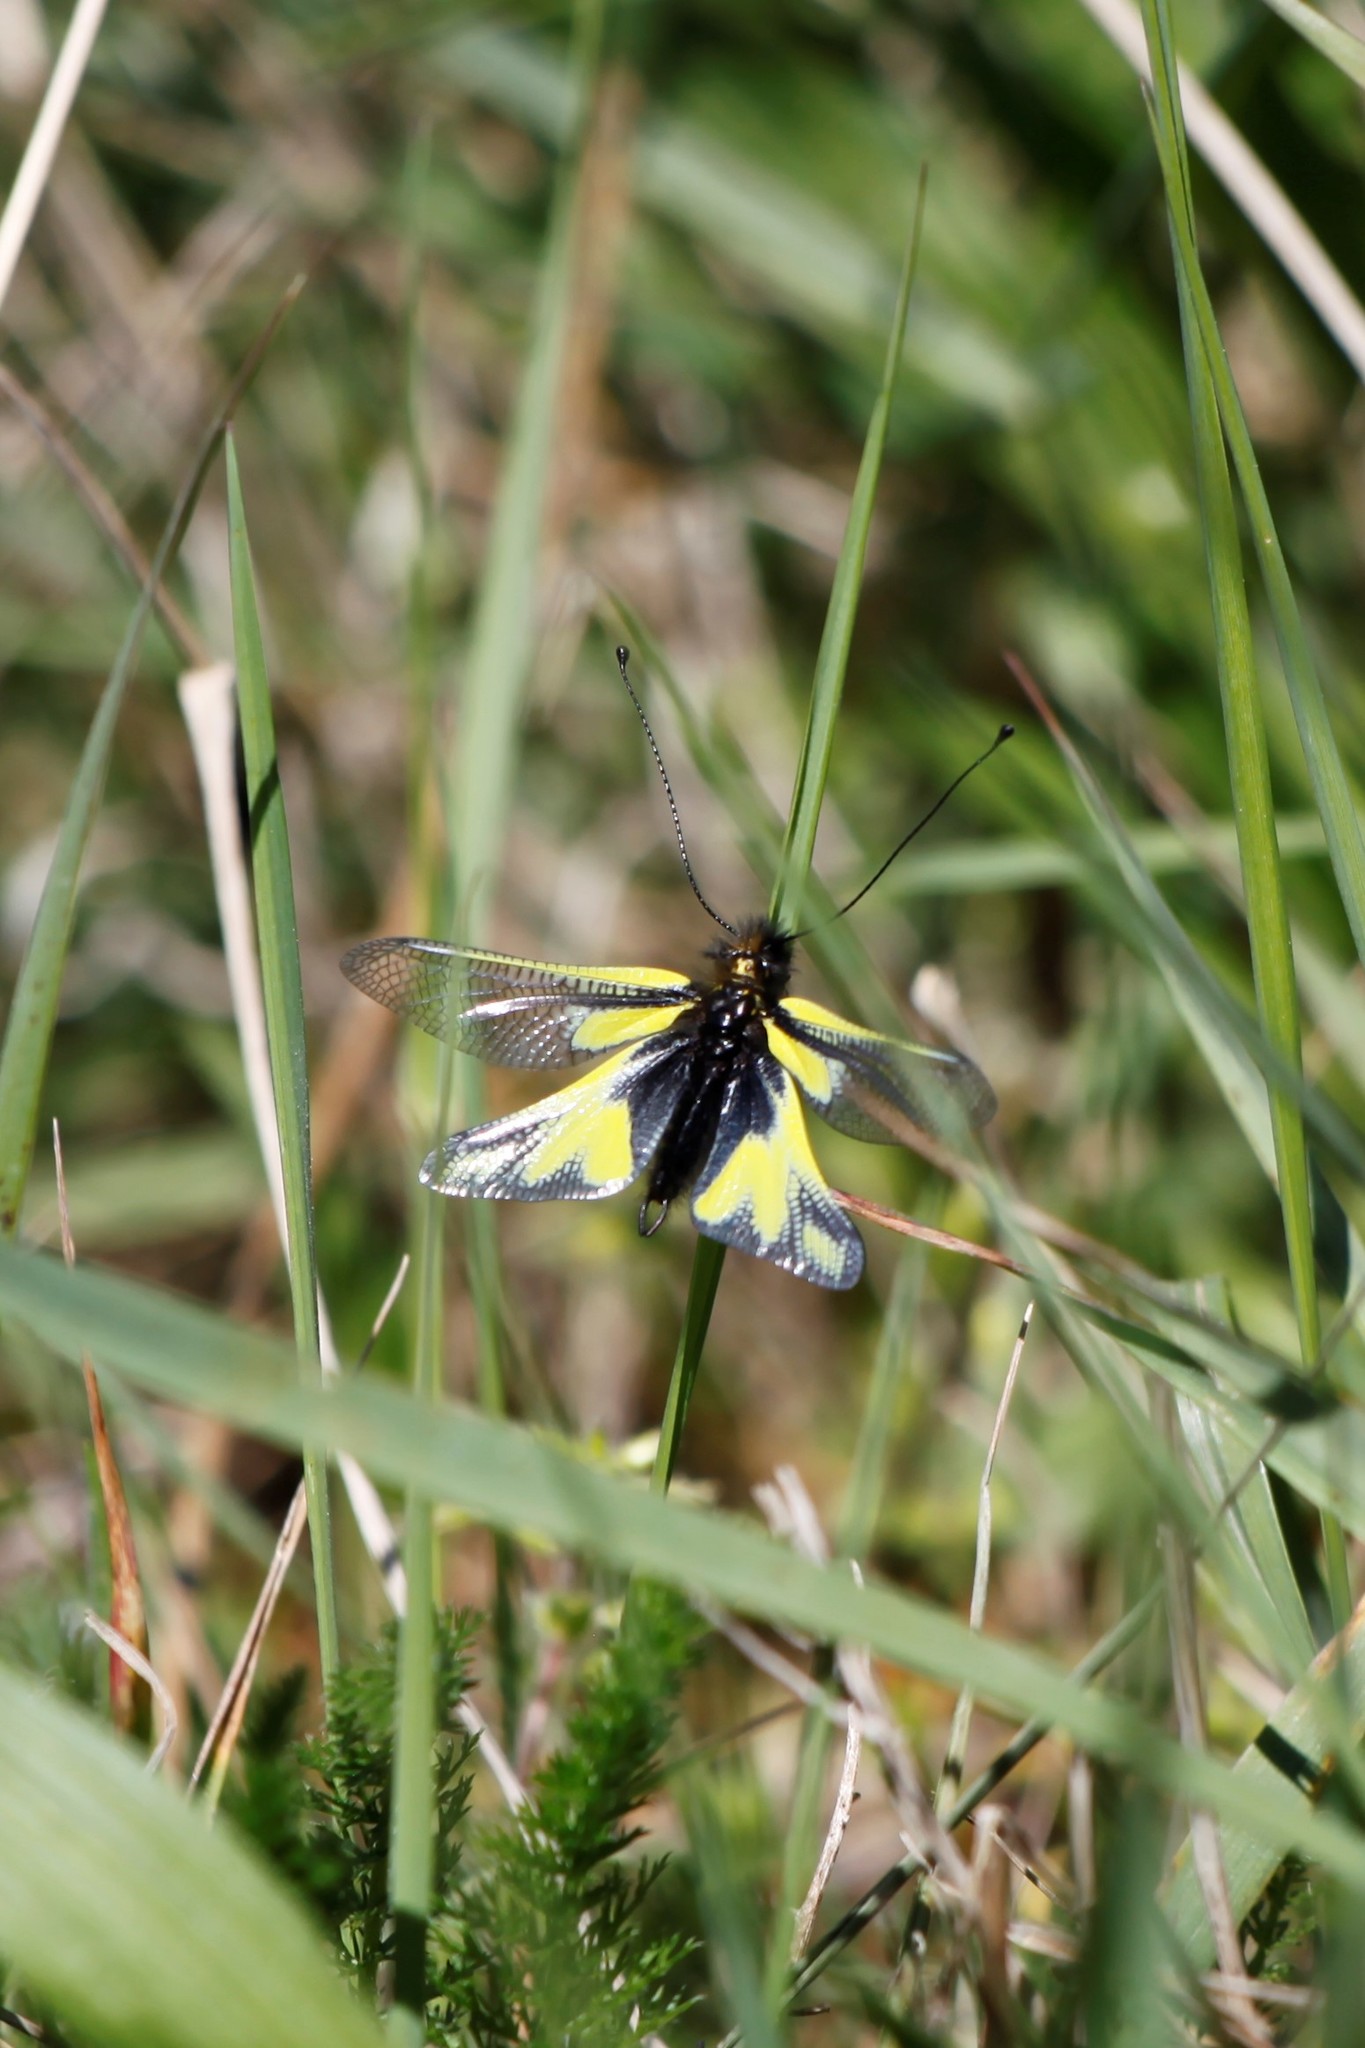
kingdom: Animalia
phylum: Arthropoda
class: Insecta
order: Neuroptera
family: Ascalaphidae
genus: Libelloides
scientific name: Libelloides coccajus
